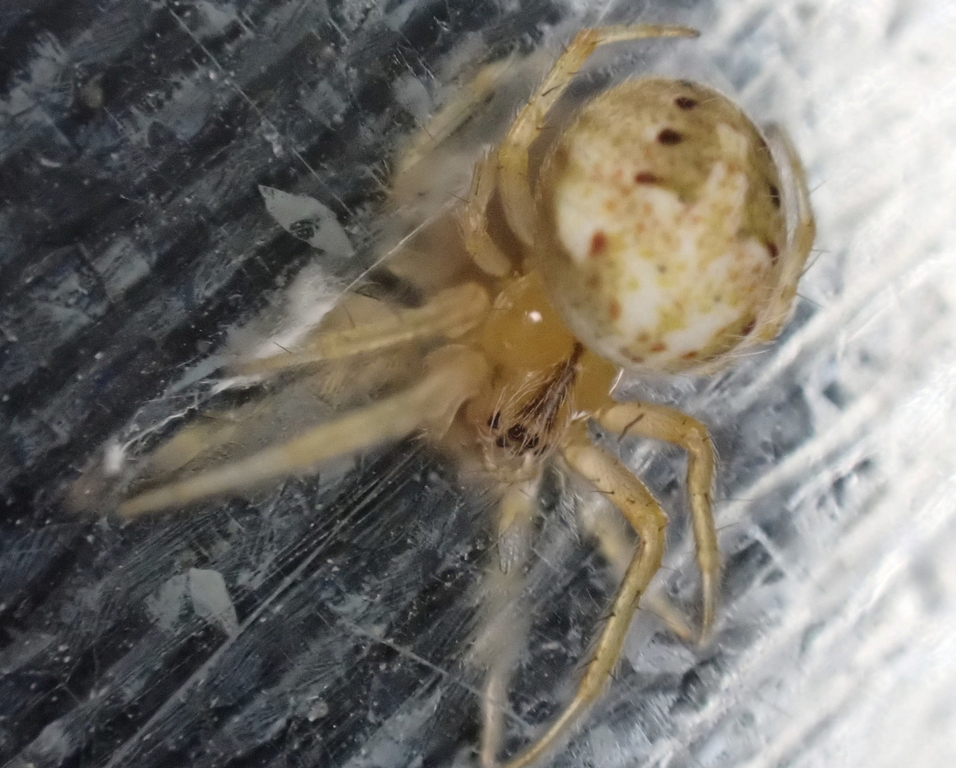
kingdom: Animalia
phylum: Arthropoda
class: Arachnida
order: Araneae
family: Araneidae
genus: Neoscona
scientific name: Neoscona arabesca
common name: Orb weavers
